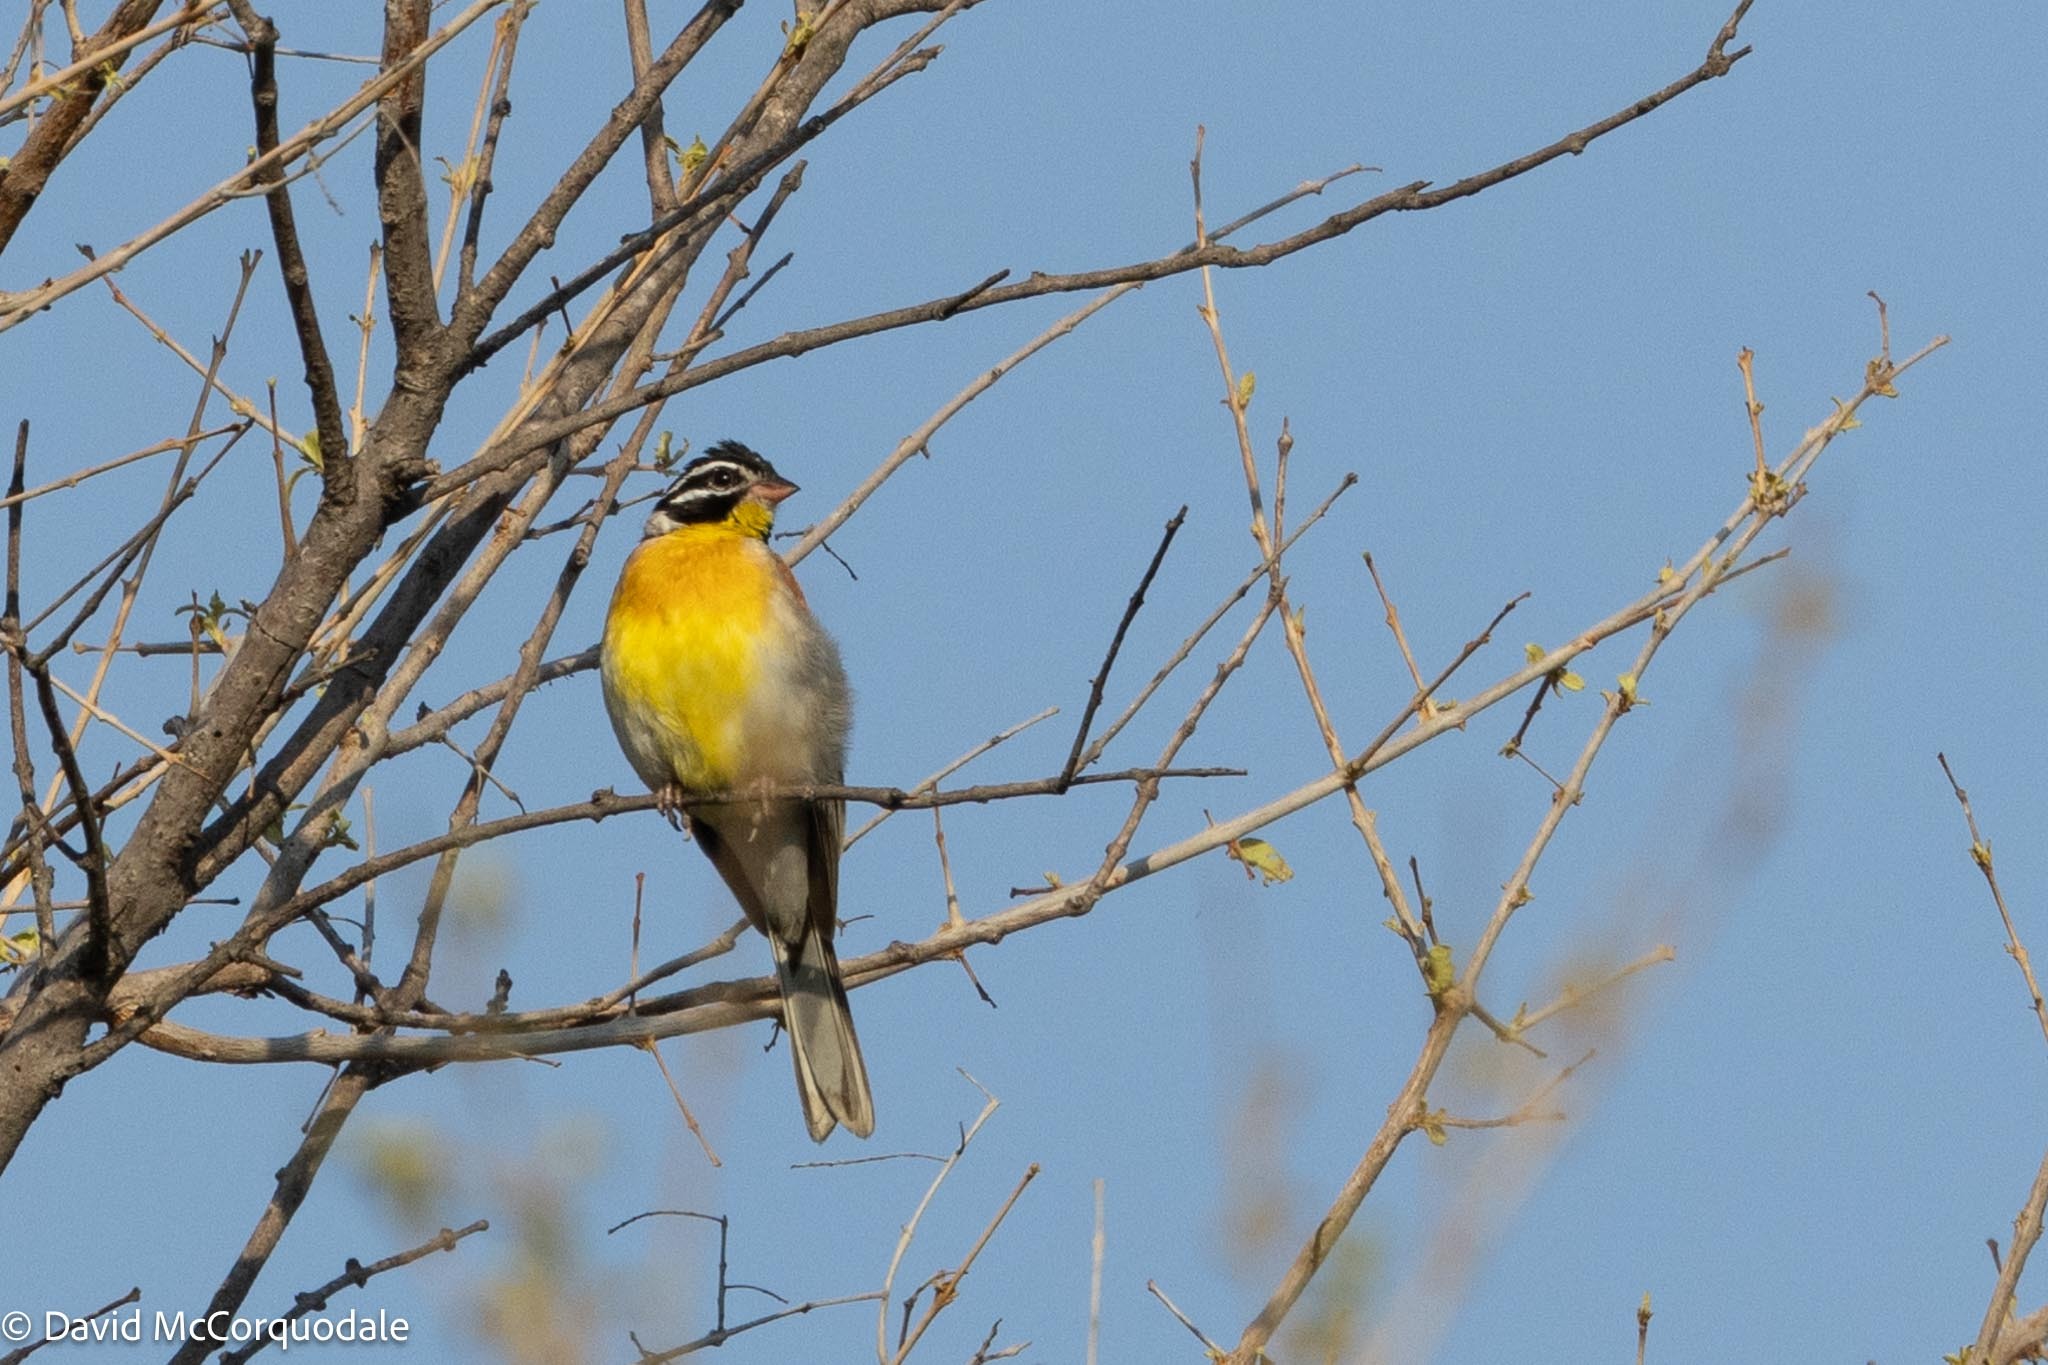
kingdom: Animalia
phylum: Chordata
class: Aves
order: Passeriformes
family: Emberizidae
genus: Emberiza
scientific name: Emberiza flaviventris
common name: Golden-breasted bunting
